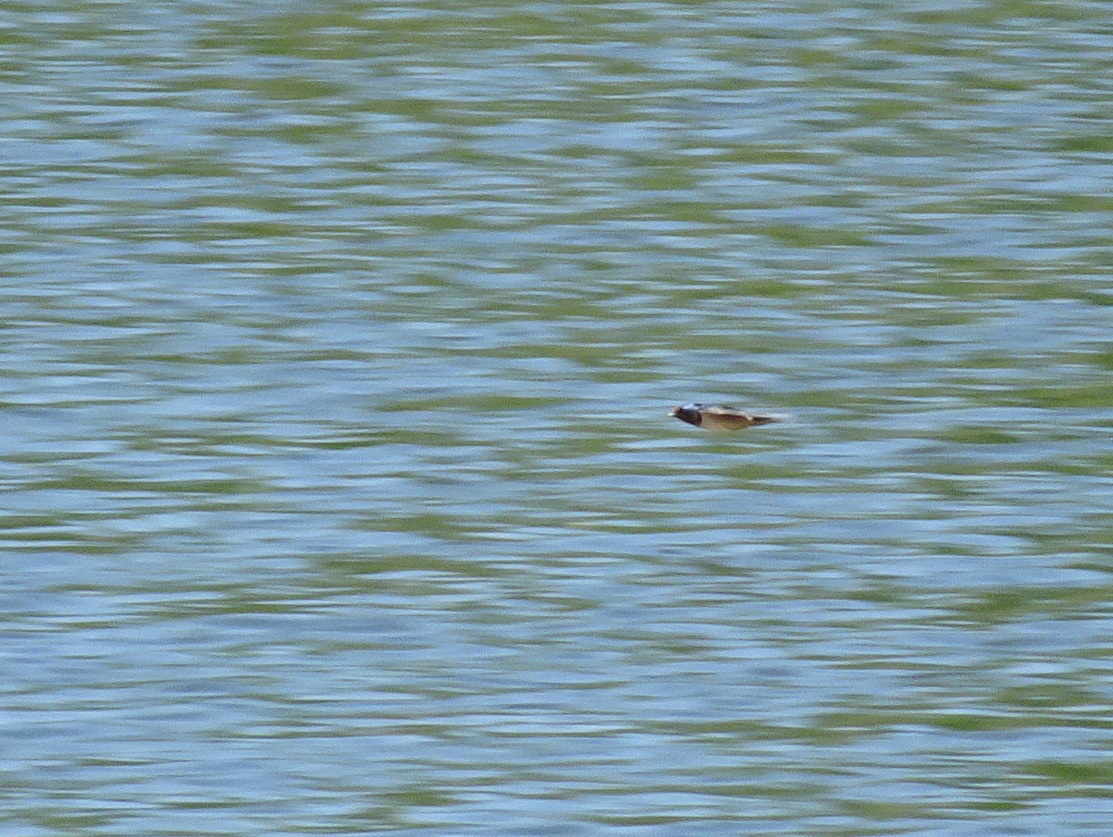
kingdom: Animalia
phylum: Chordata
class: Aves
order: Passeriformes
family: Hirundinidae
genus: Hirundo
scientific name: Hirundo rustica
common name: Barn swallow
